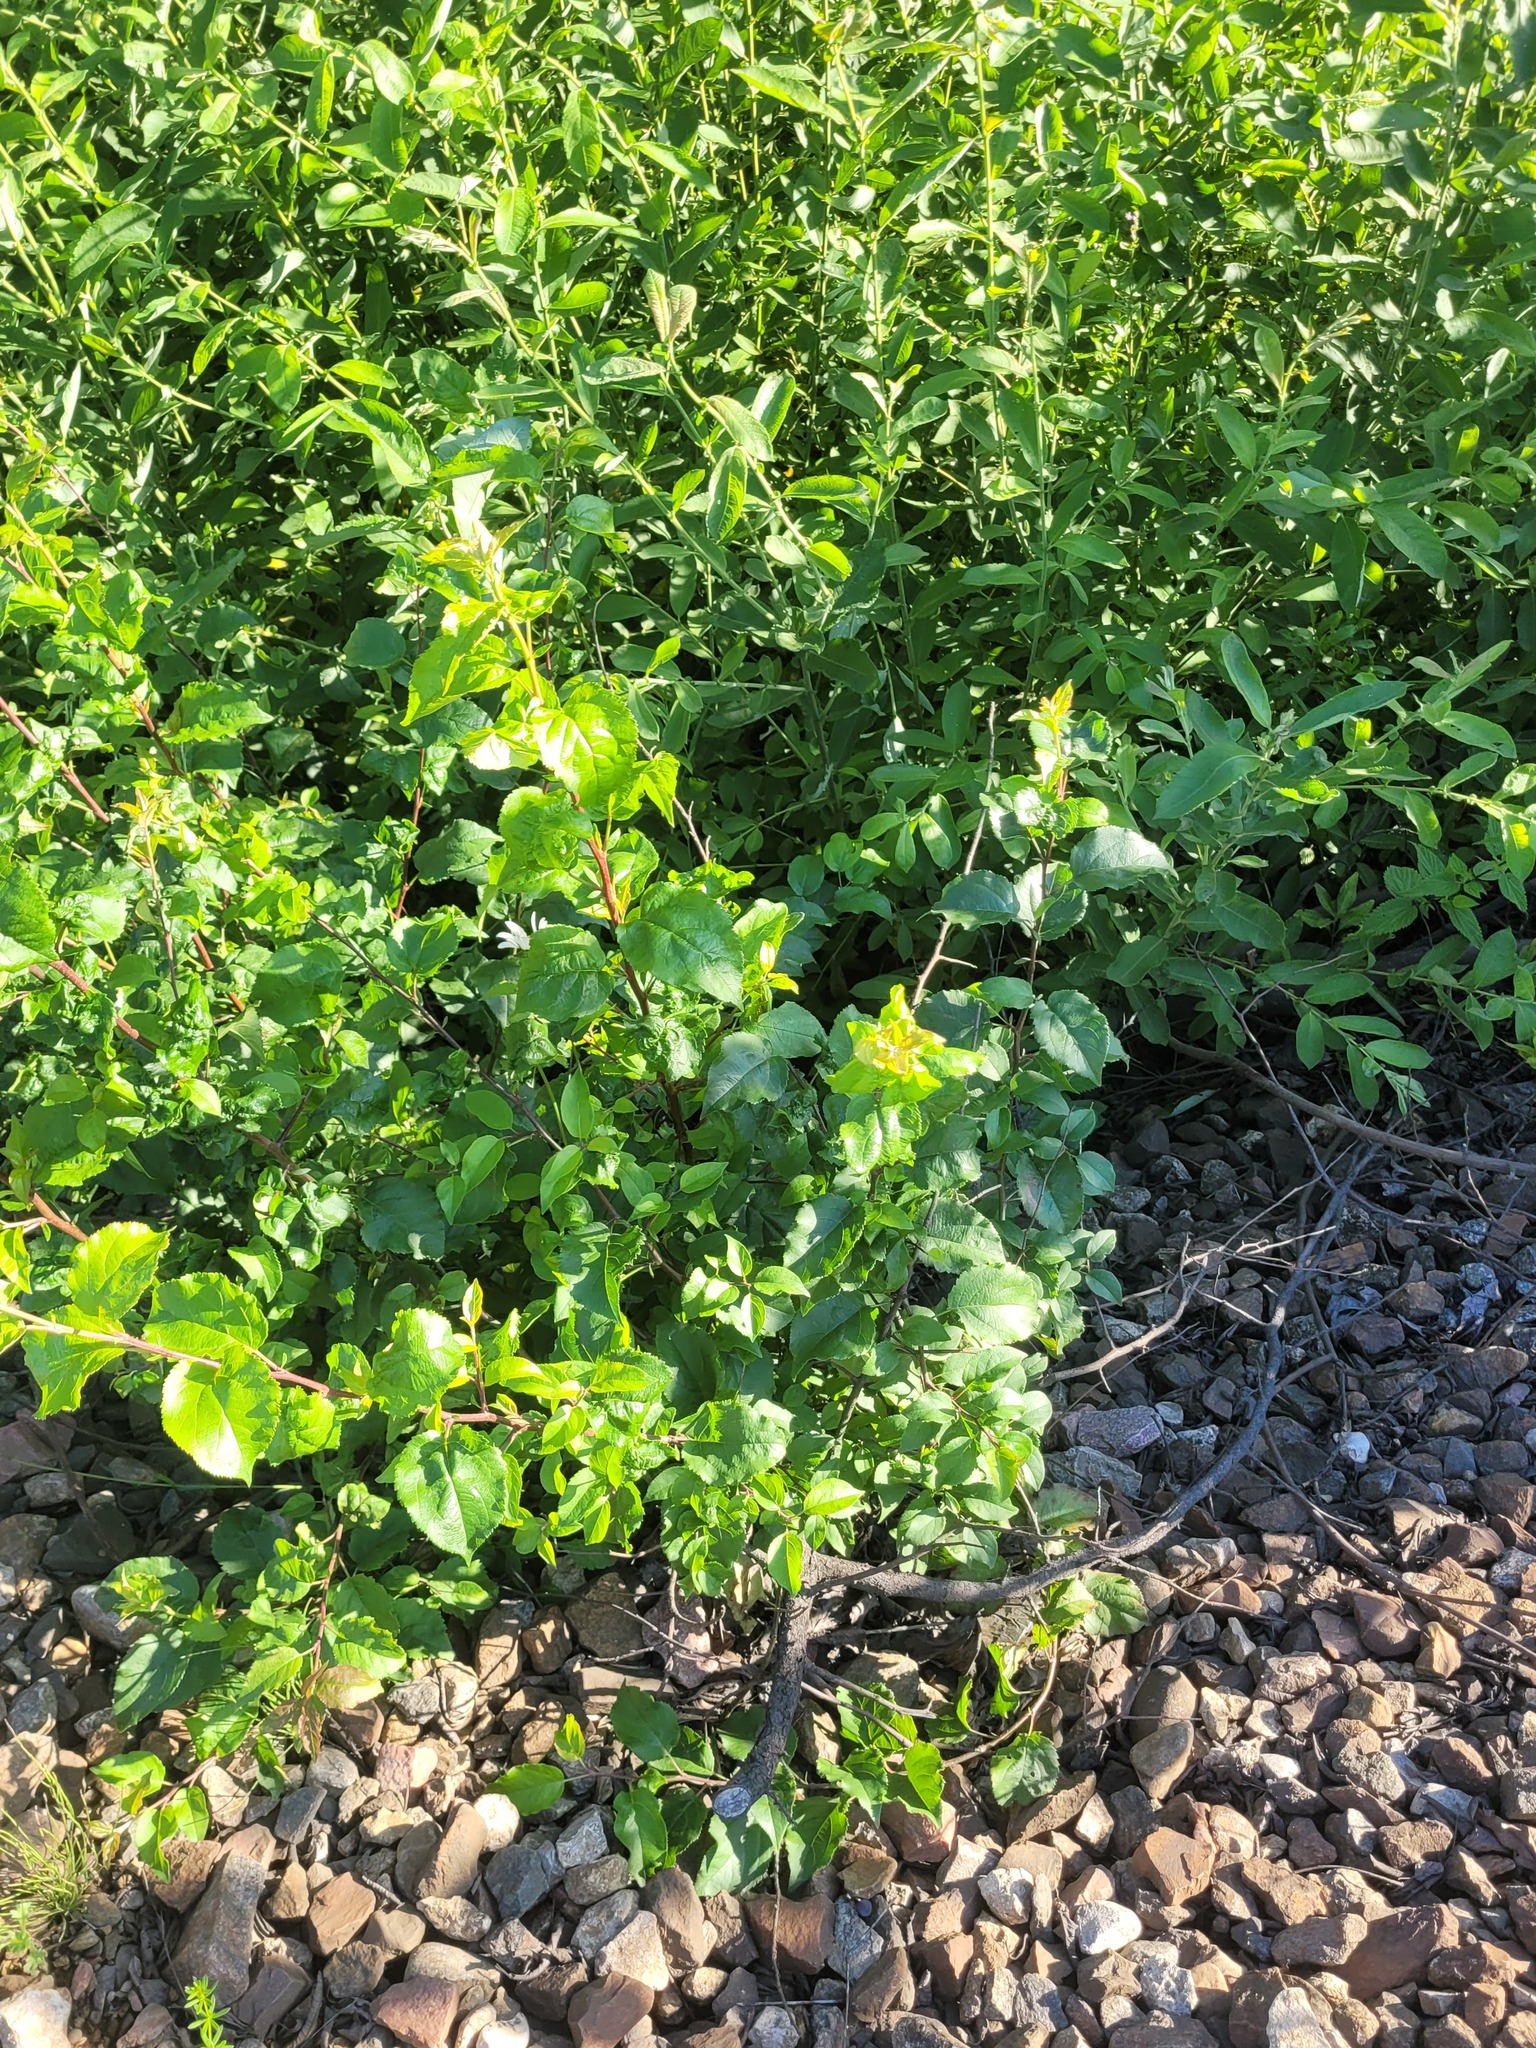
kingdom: Plantae
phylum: Tracheophyta
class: Magnoliopsida
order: Rosales
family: Rosaceae
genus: Malus
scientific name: Malus domestica
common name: Apple
